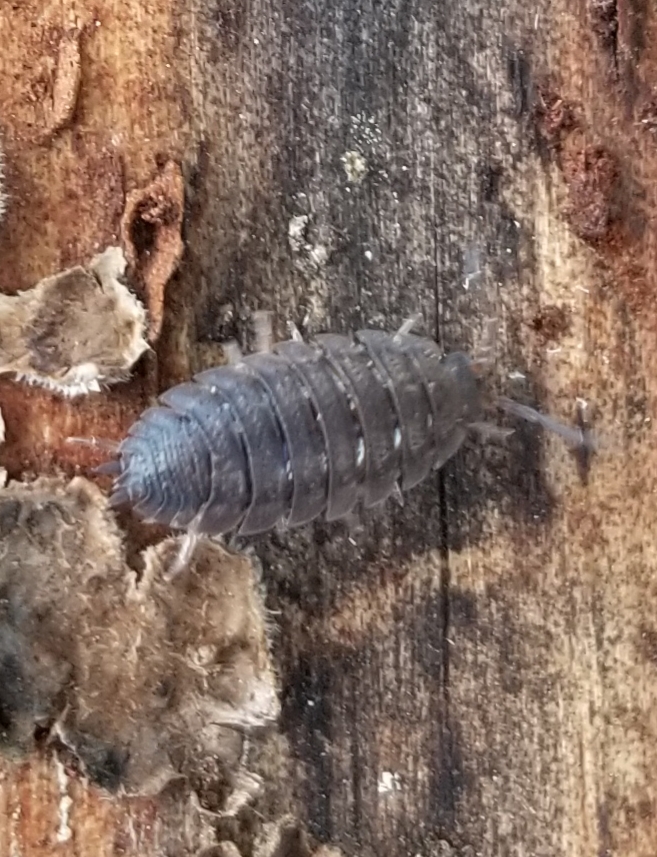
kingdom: Animalia
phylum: Arthropoda
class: Malacostraca
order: Isopoda
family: Porcellionidae
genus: Porcellio
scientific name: Porcellio scaber
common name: Common rough woodlouse
